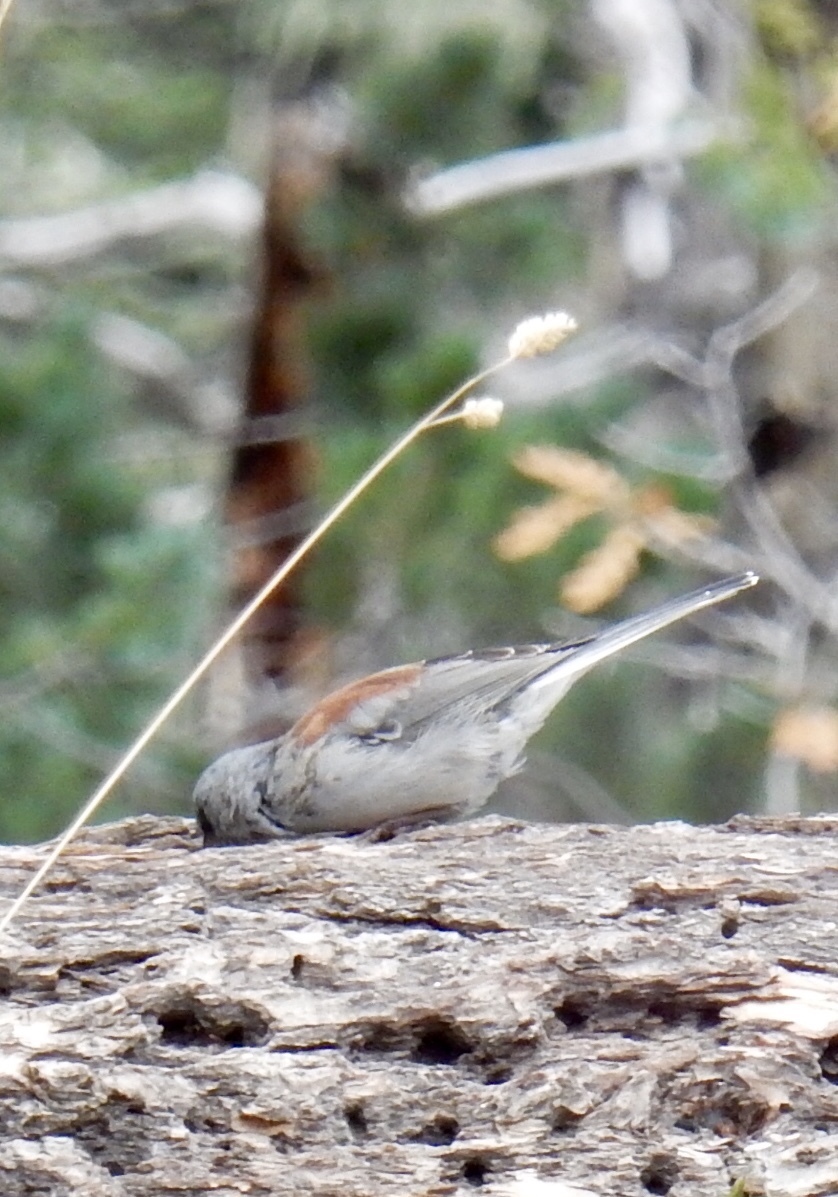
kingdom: Animalia
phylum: Chordata
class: Aves
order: Passeriformes
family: Passerellidae
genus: Junco
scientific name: Junco hyemalis
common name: Dark-eyed junco
